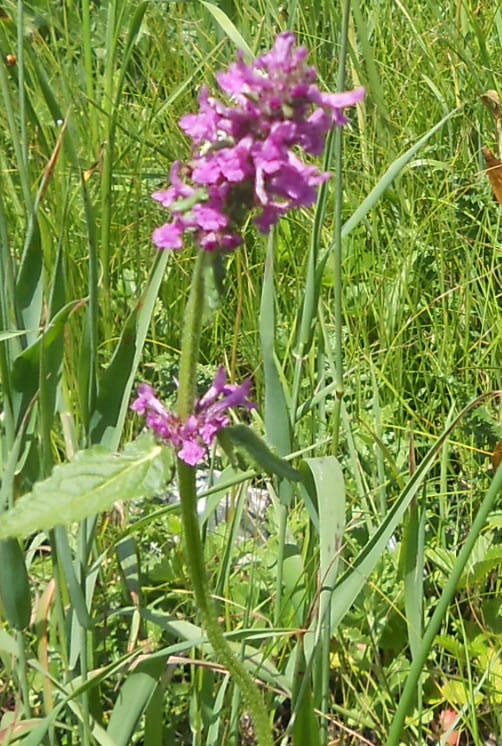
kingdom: Plantae
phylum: Tracheophyta
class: Magnoliopsida
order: Lamiales
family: Lamiaceae
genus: Betonica
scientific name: Betonica officinalis
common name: Bishop's-wort
